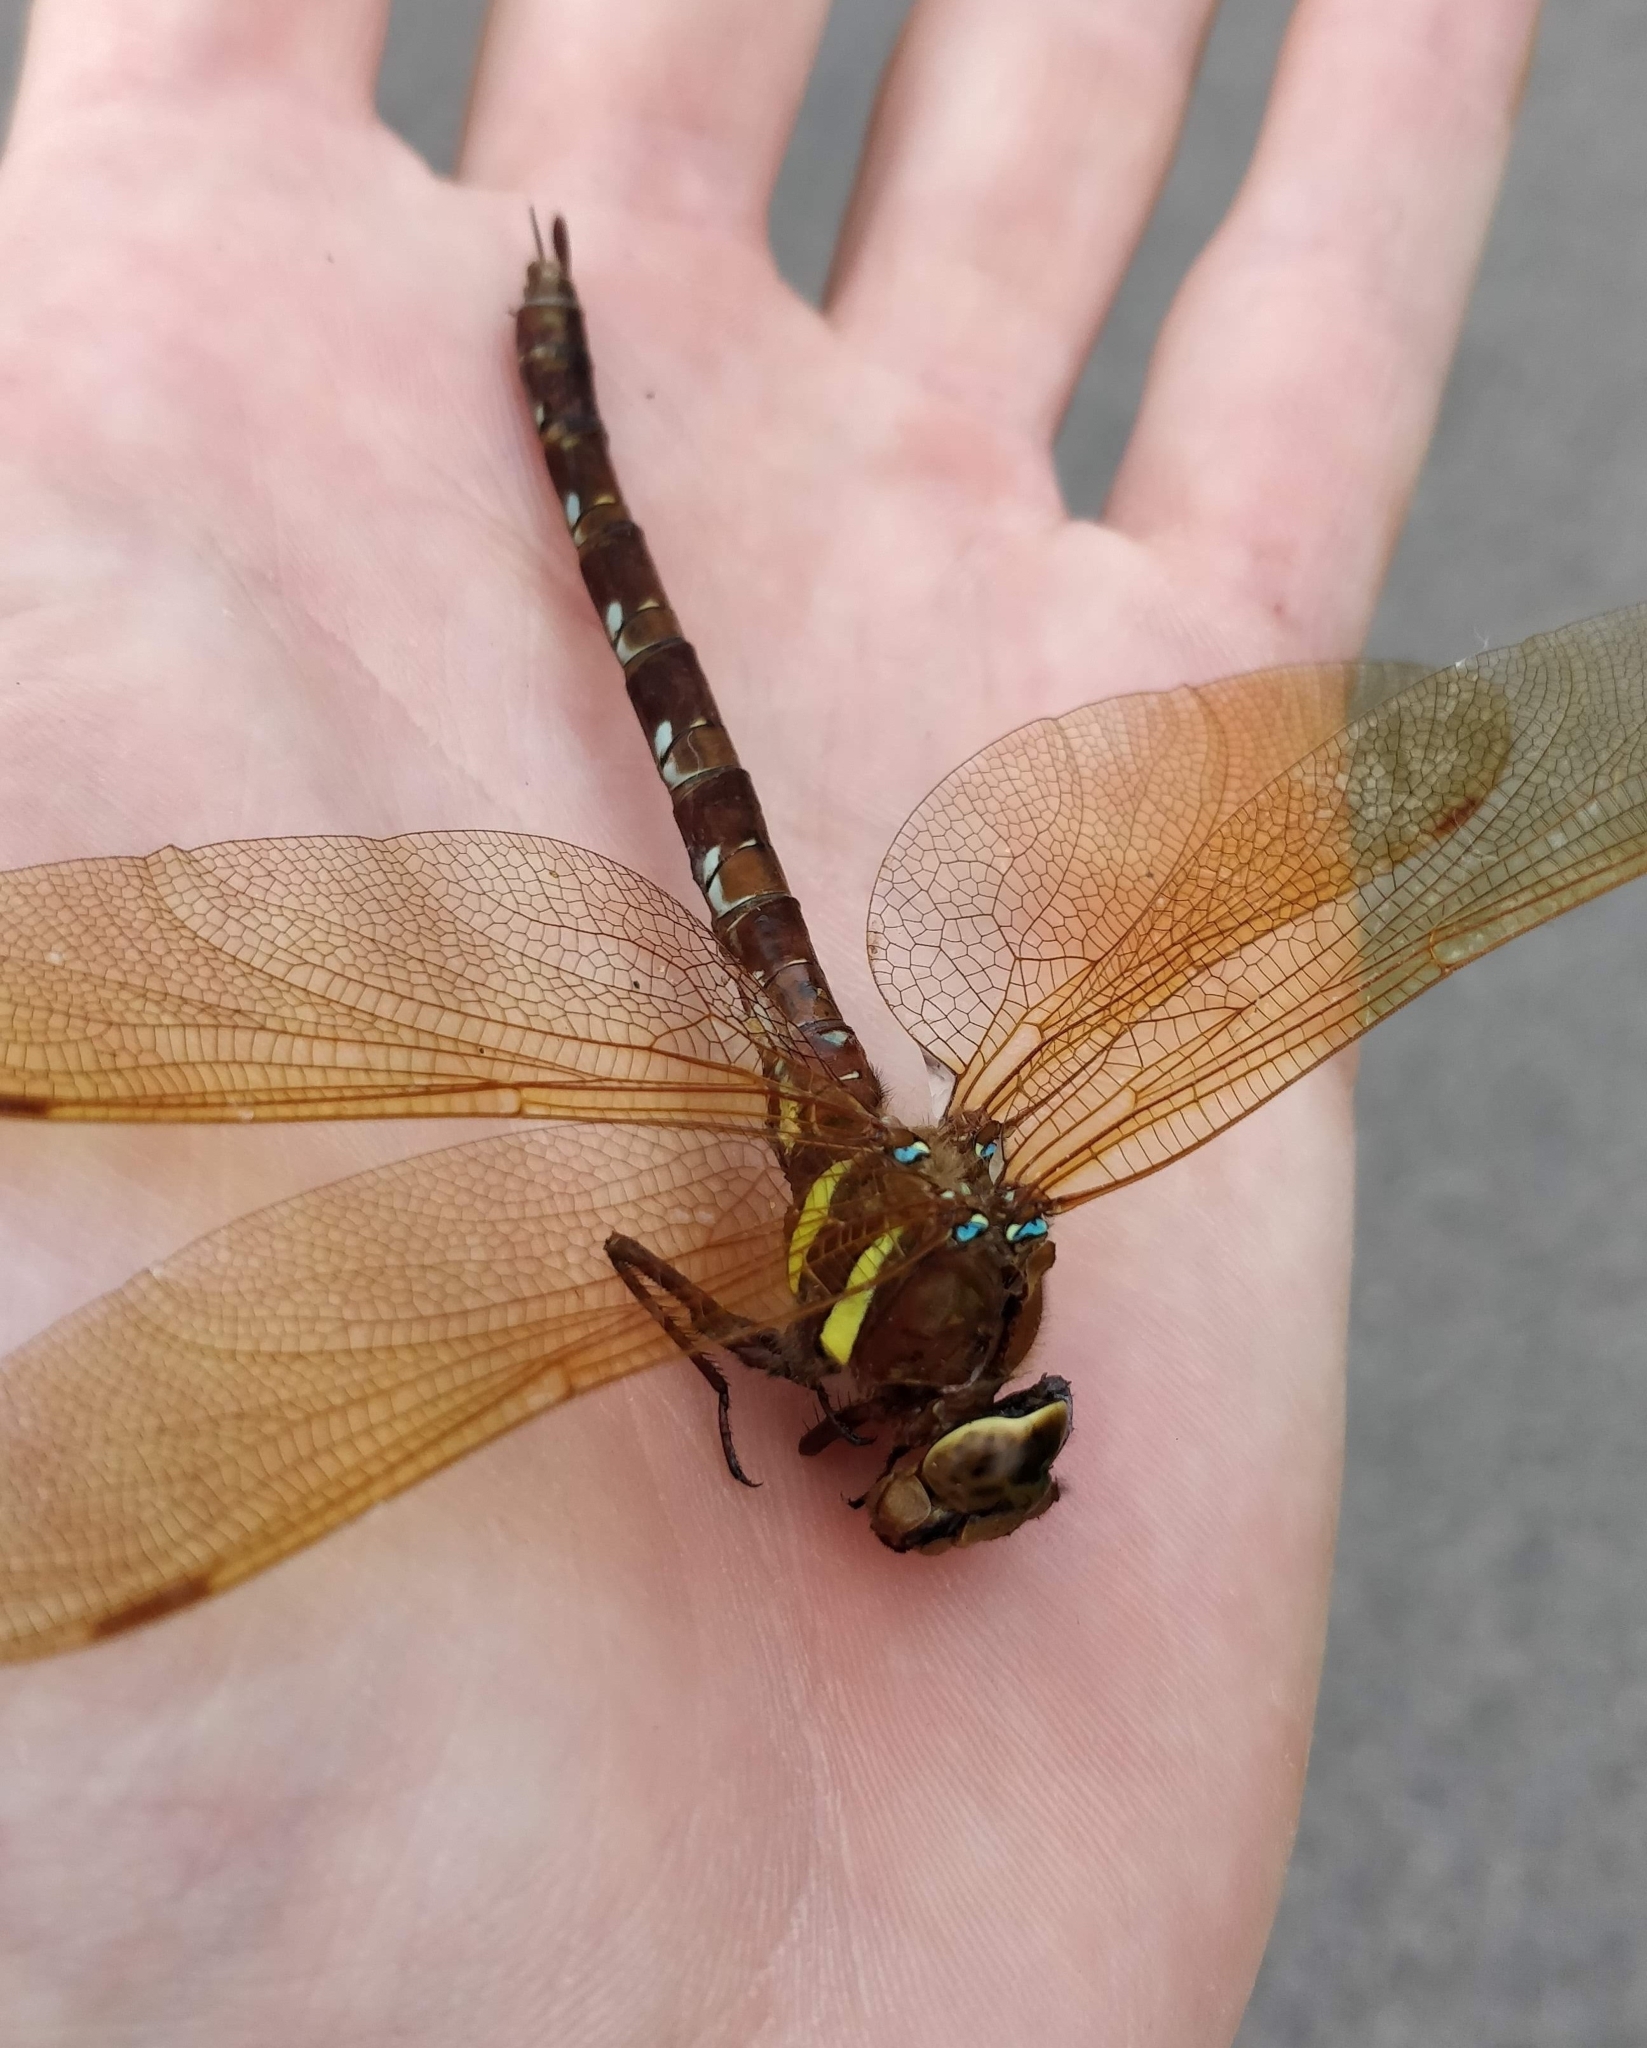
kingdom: Animalia
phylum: Arthropoda
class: Insecta
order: Odonata
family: Aeshnidae
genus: Aeshna
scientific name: Aeshna grandis
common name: Brown hawker
